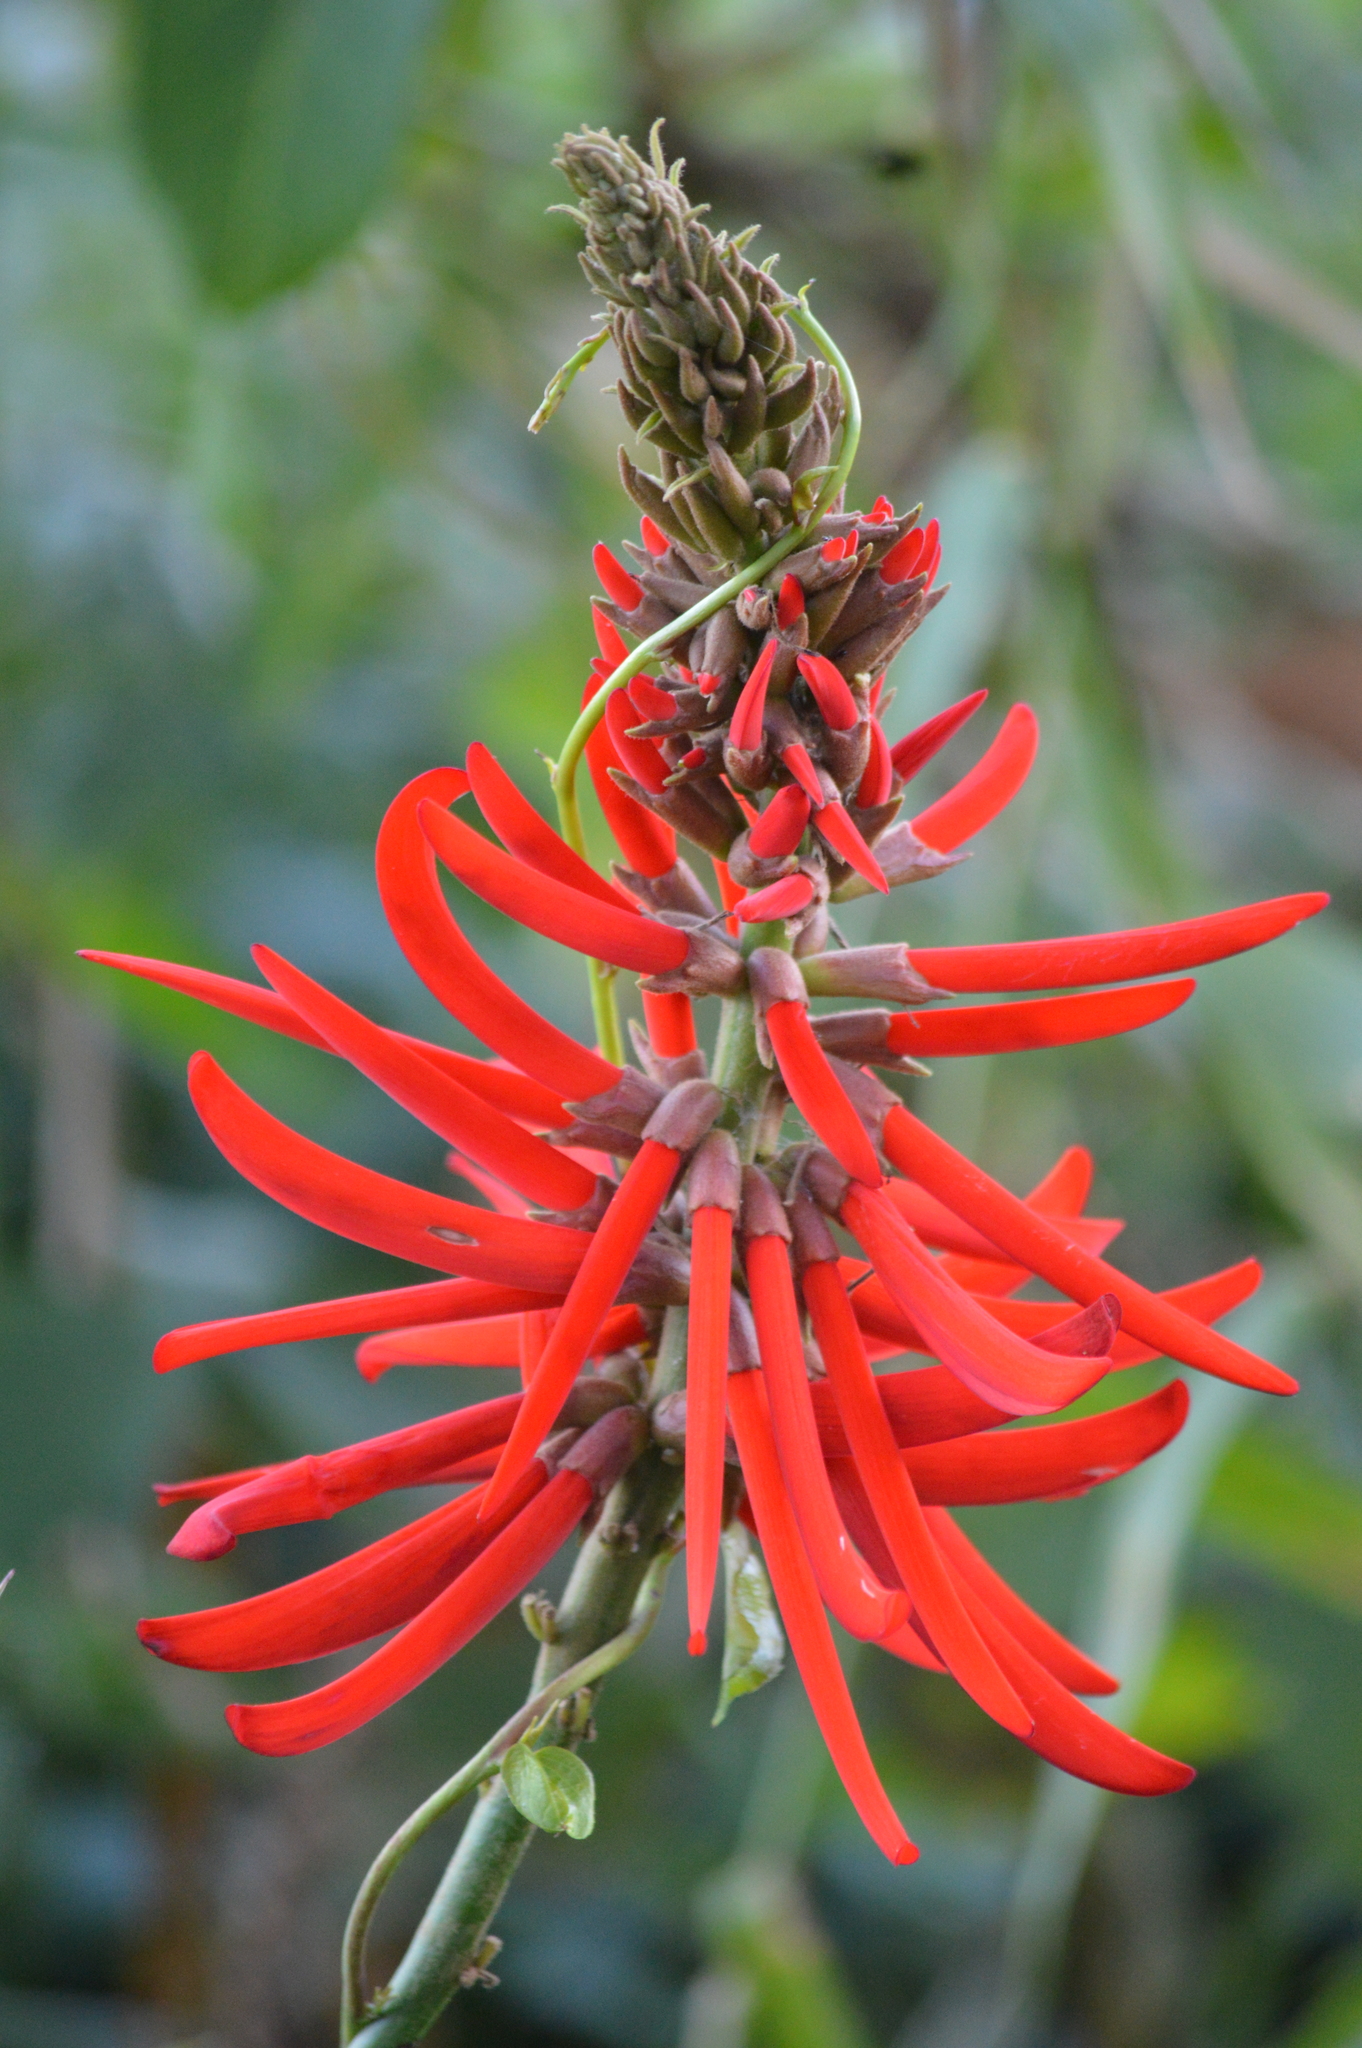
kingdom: Plantae
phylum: Tracheophyta
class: Magnoliopsida
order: Fabales
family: Fabaceae
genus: Erythrina
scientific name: Erythrina speciosa
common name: Coral tree
